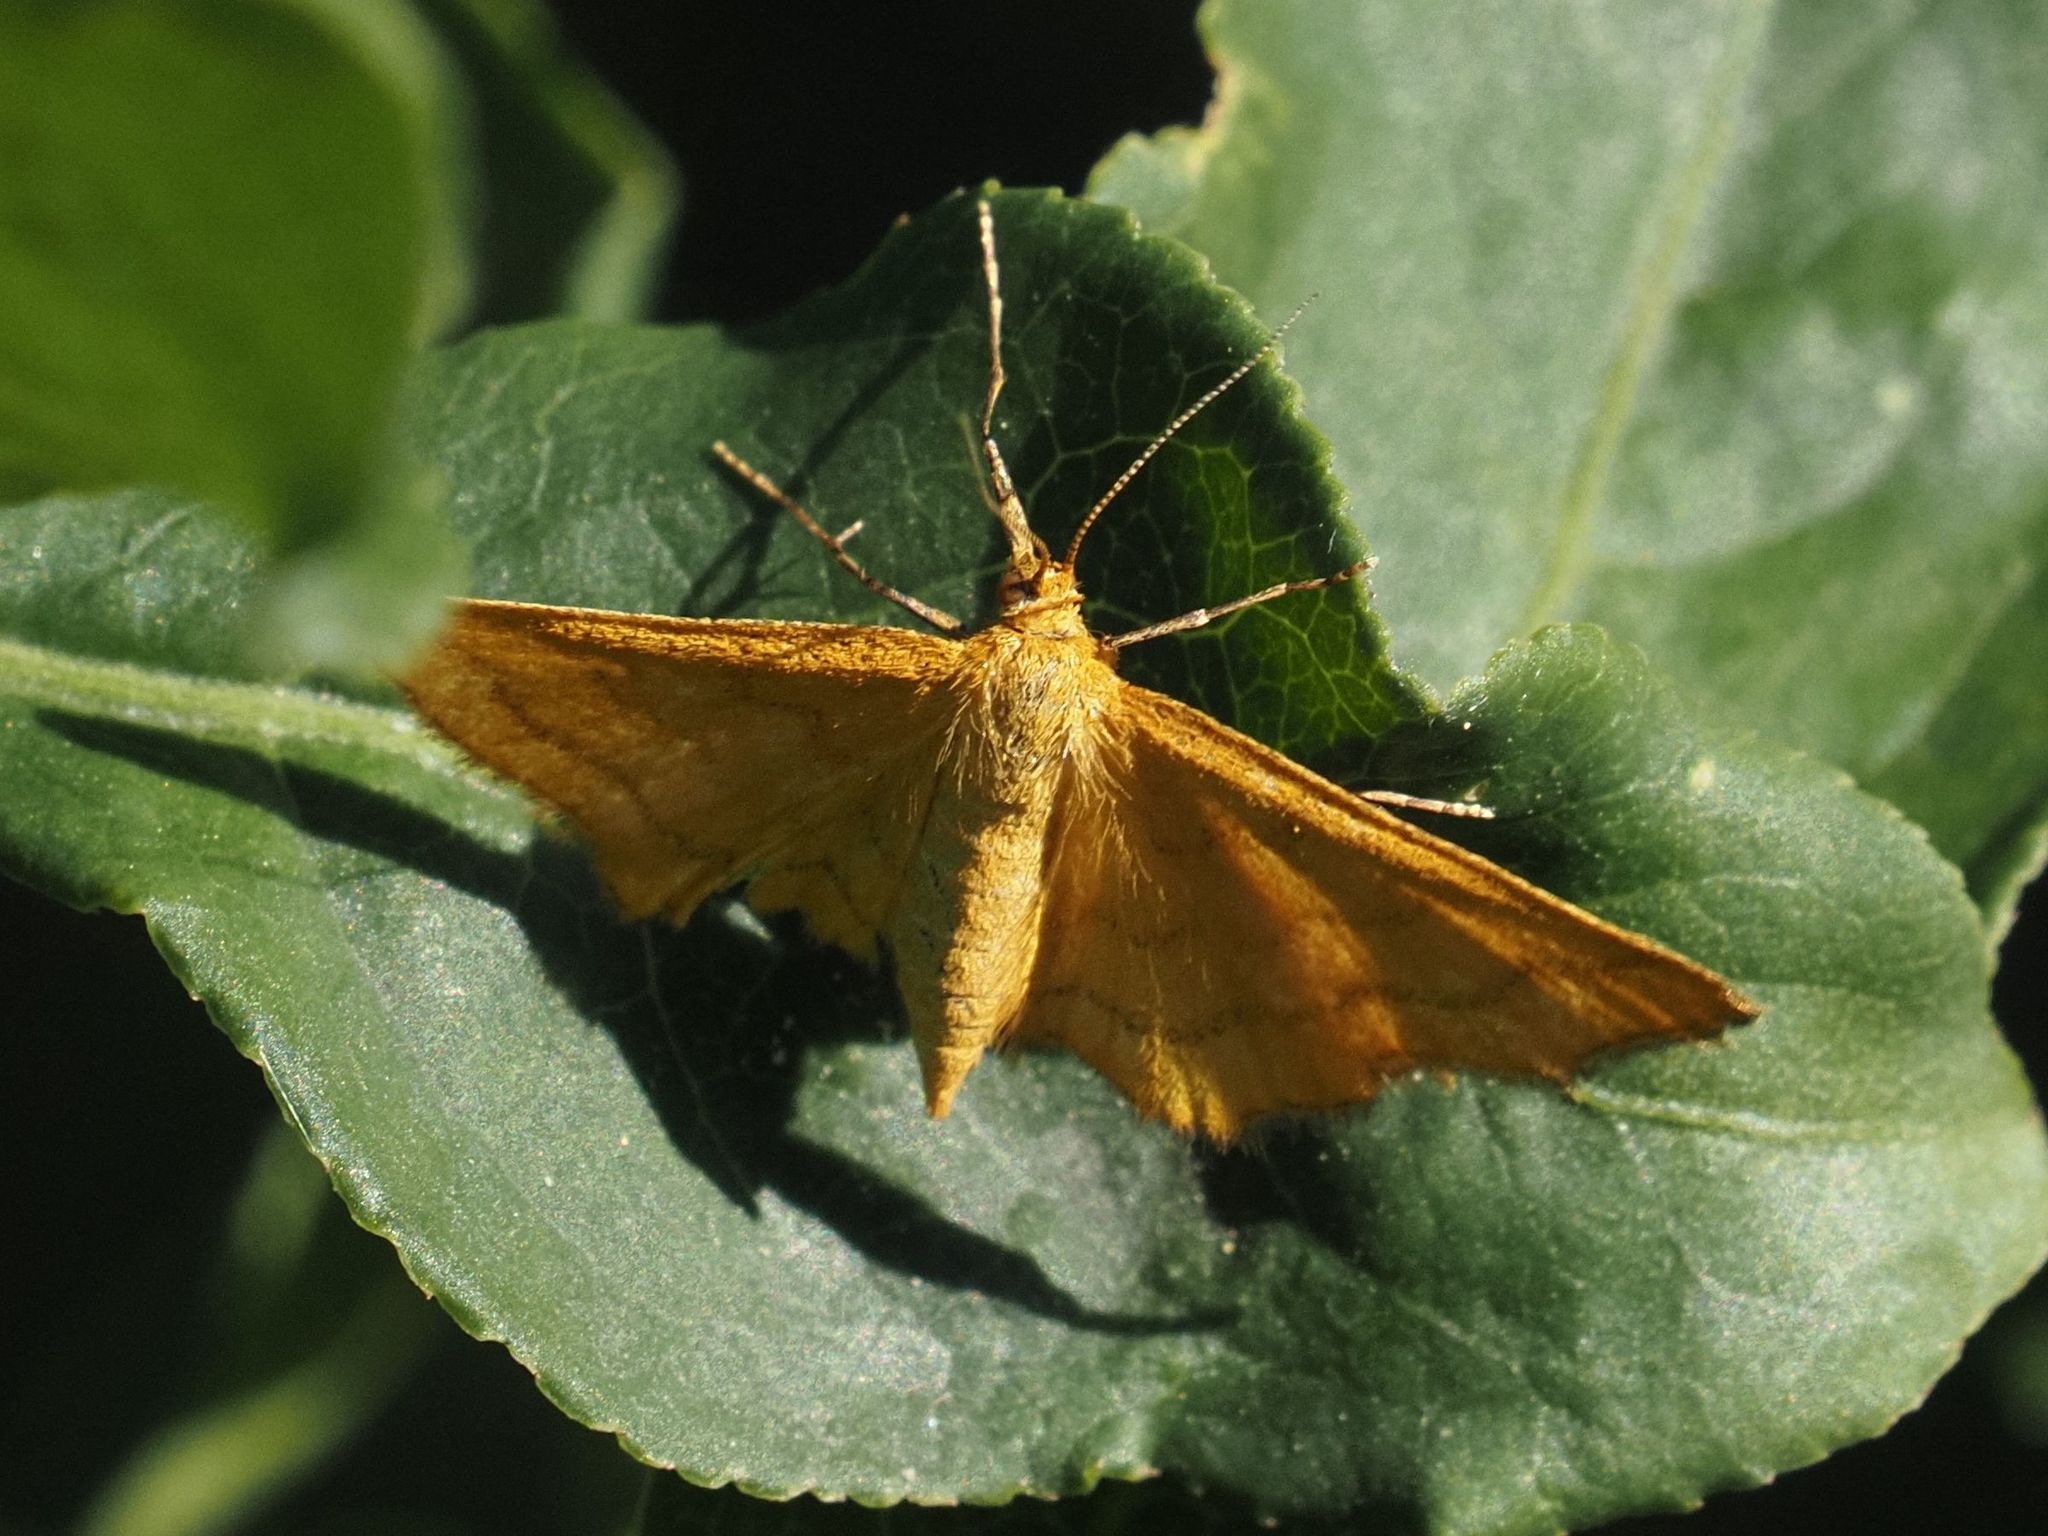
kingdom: Animalia
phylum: Arthropoda
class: Insecta
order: Lepidoptera
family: Geometridae
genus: Idaea
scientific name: Idaea aureolaria
